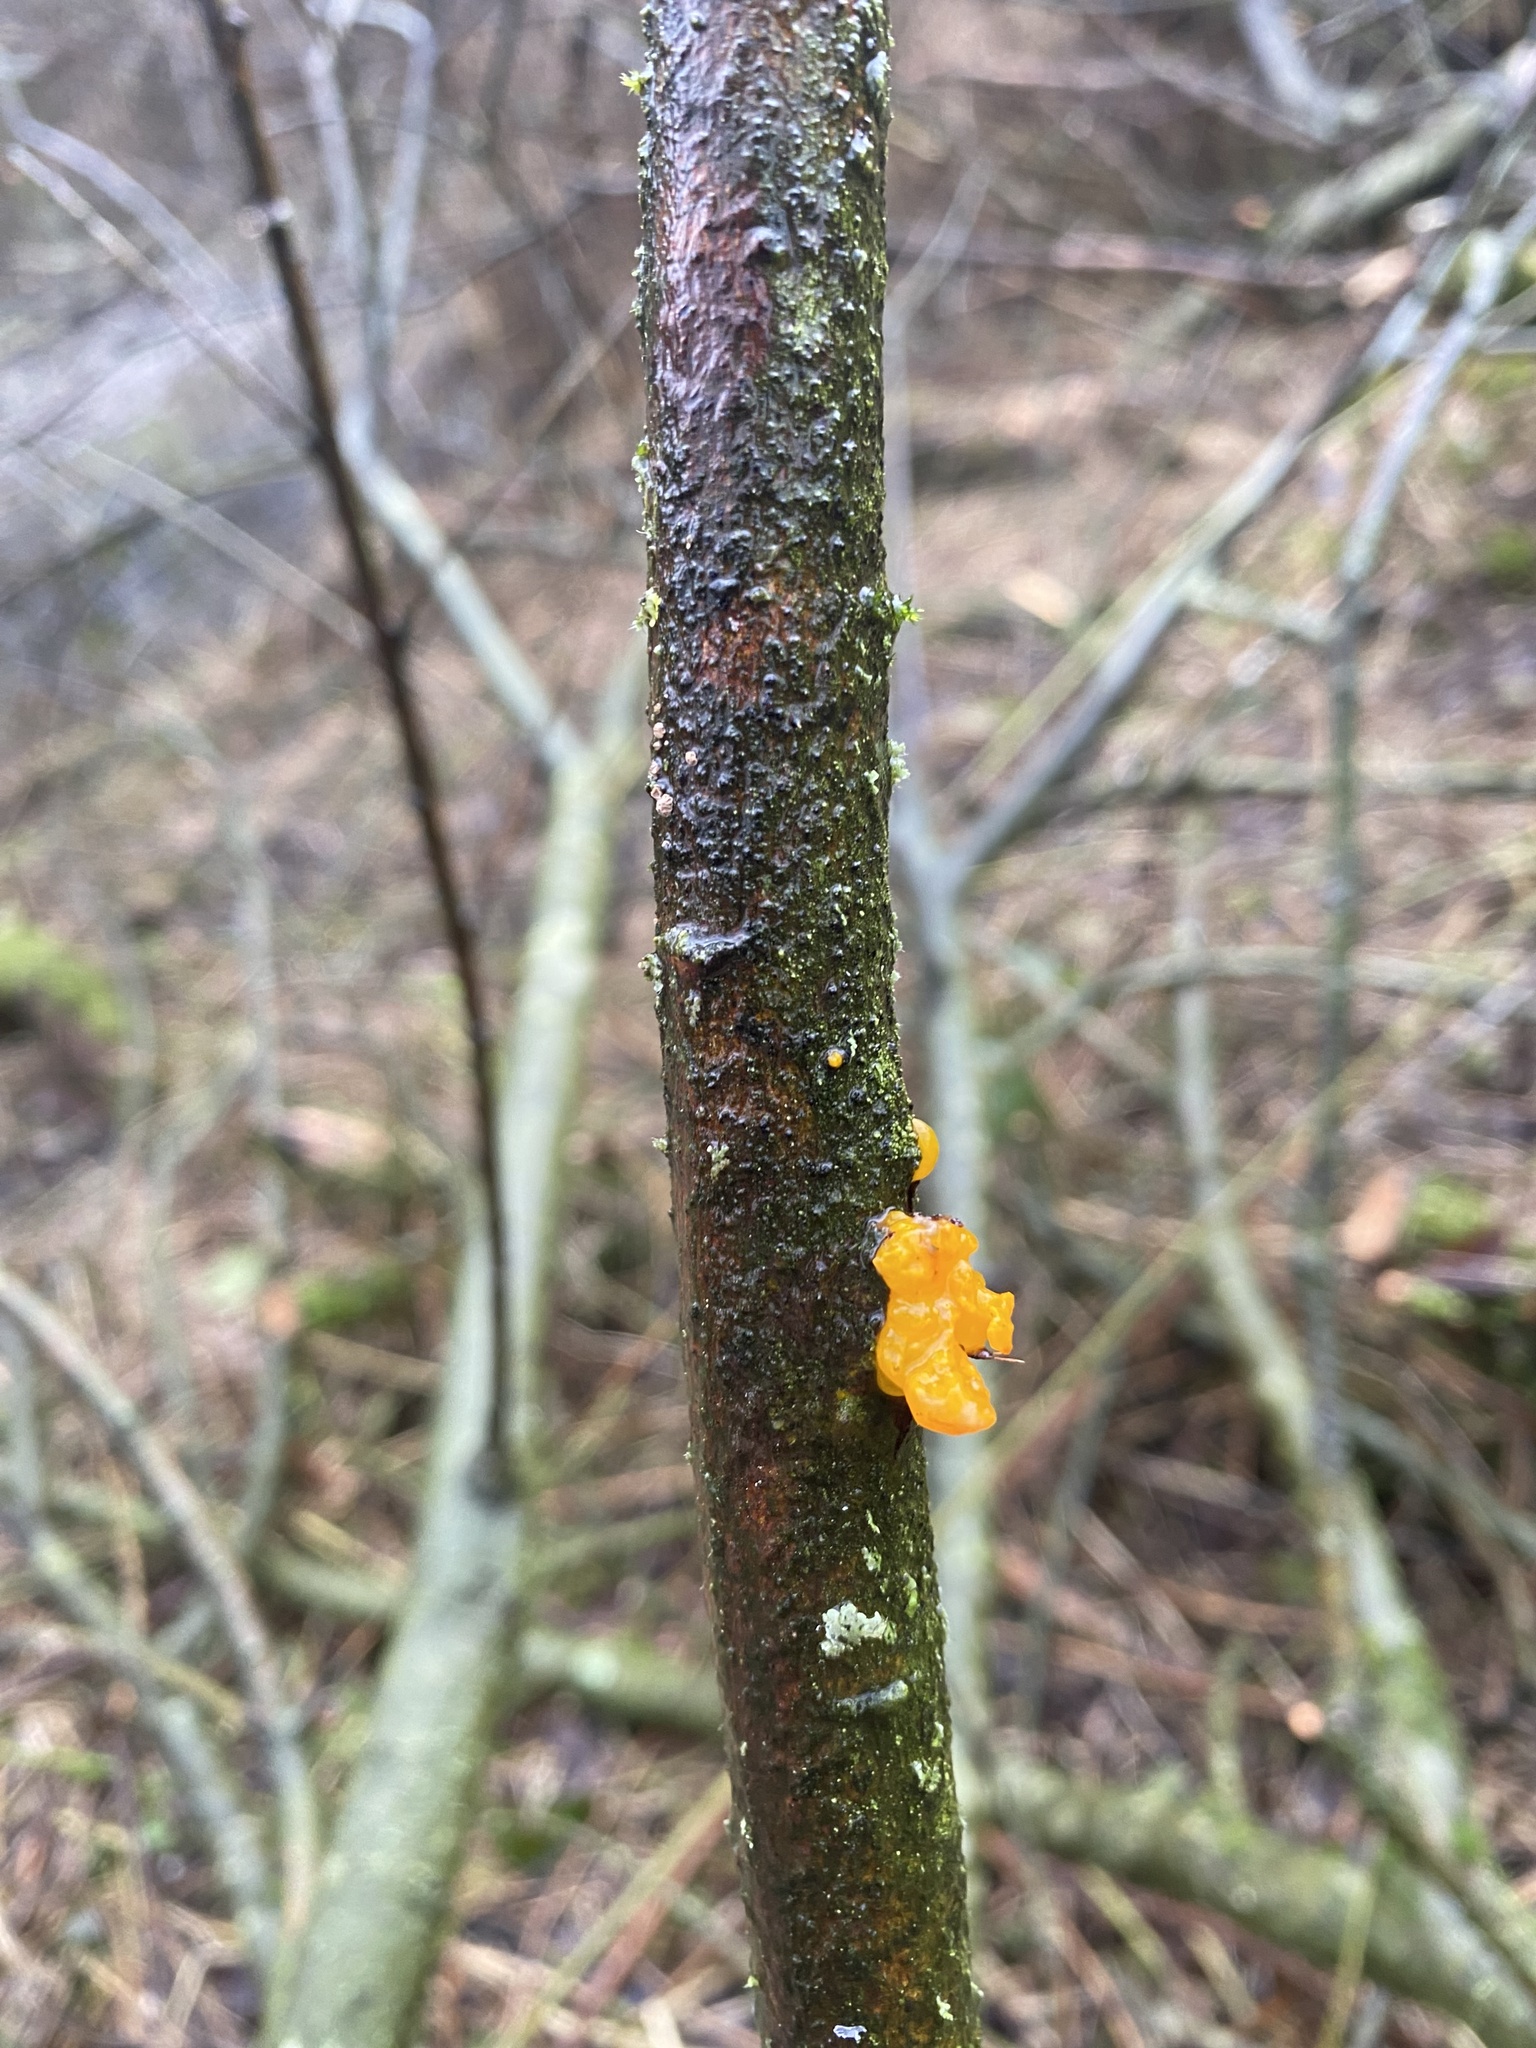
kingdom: Fungi
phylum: Basidiomycota
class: Tremellomycetes
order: Tremellales
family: Tremellaceae
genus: Tremella
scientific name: Tremella mesenterica
